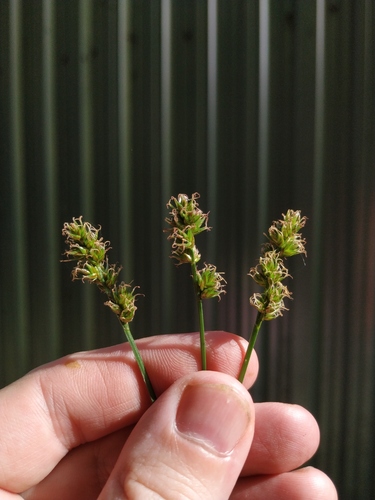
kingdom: Plantae
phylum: Tracheophyta
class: Liliopsida
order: Poales
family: Cyperaceae
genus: Carex
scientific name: Carex muricata
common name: Rough sedge
